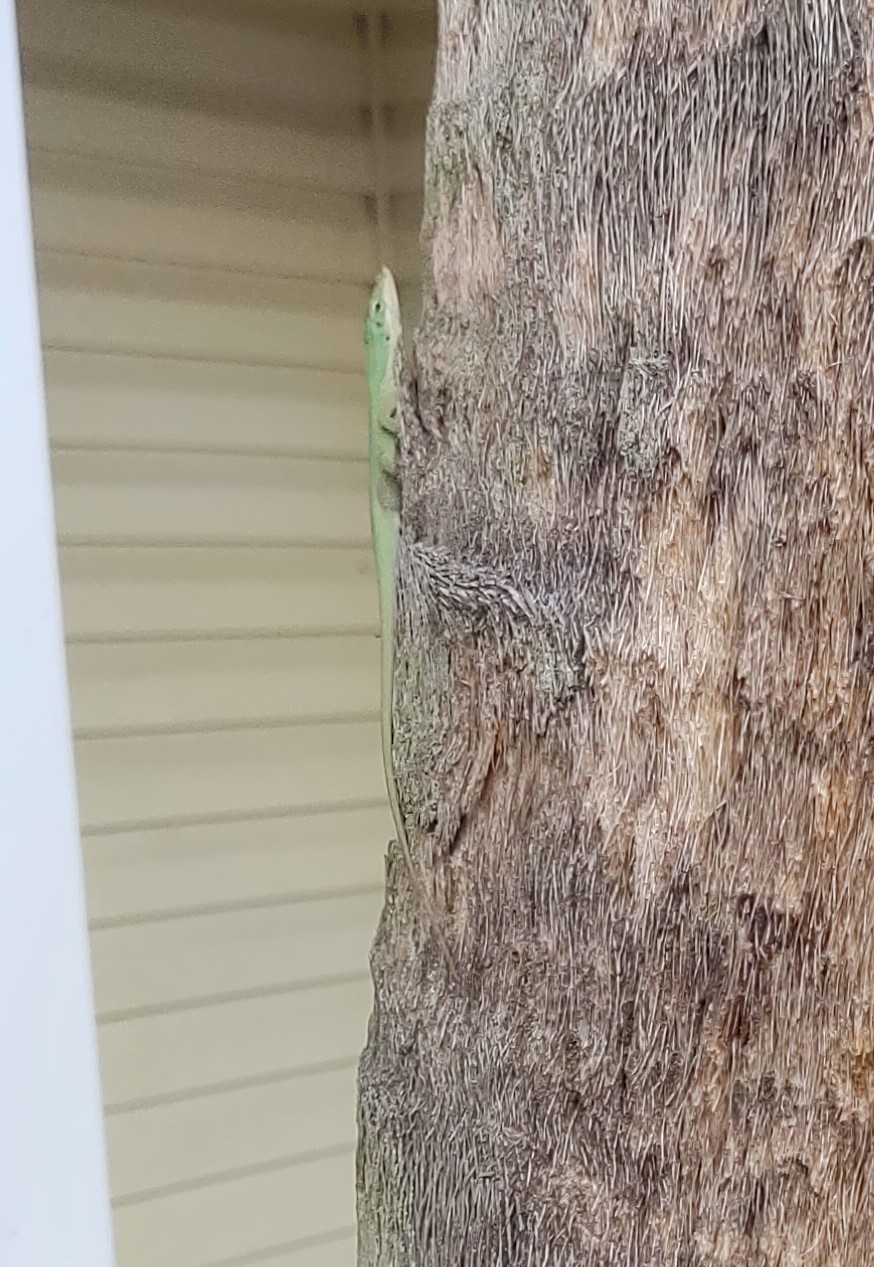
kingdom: Animalia
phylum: Chordata
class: Squamata
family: Dactyloidae
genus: Anolis
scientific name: Anolis carolinensis
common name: Green anole
